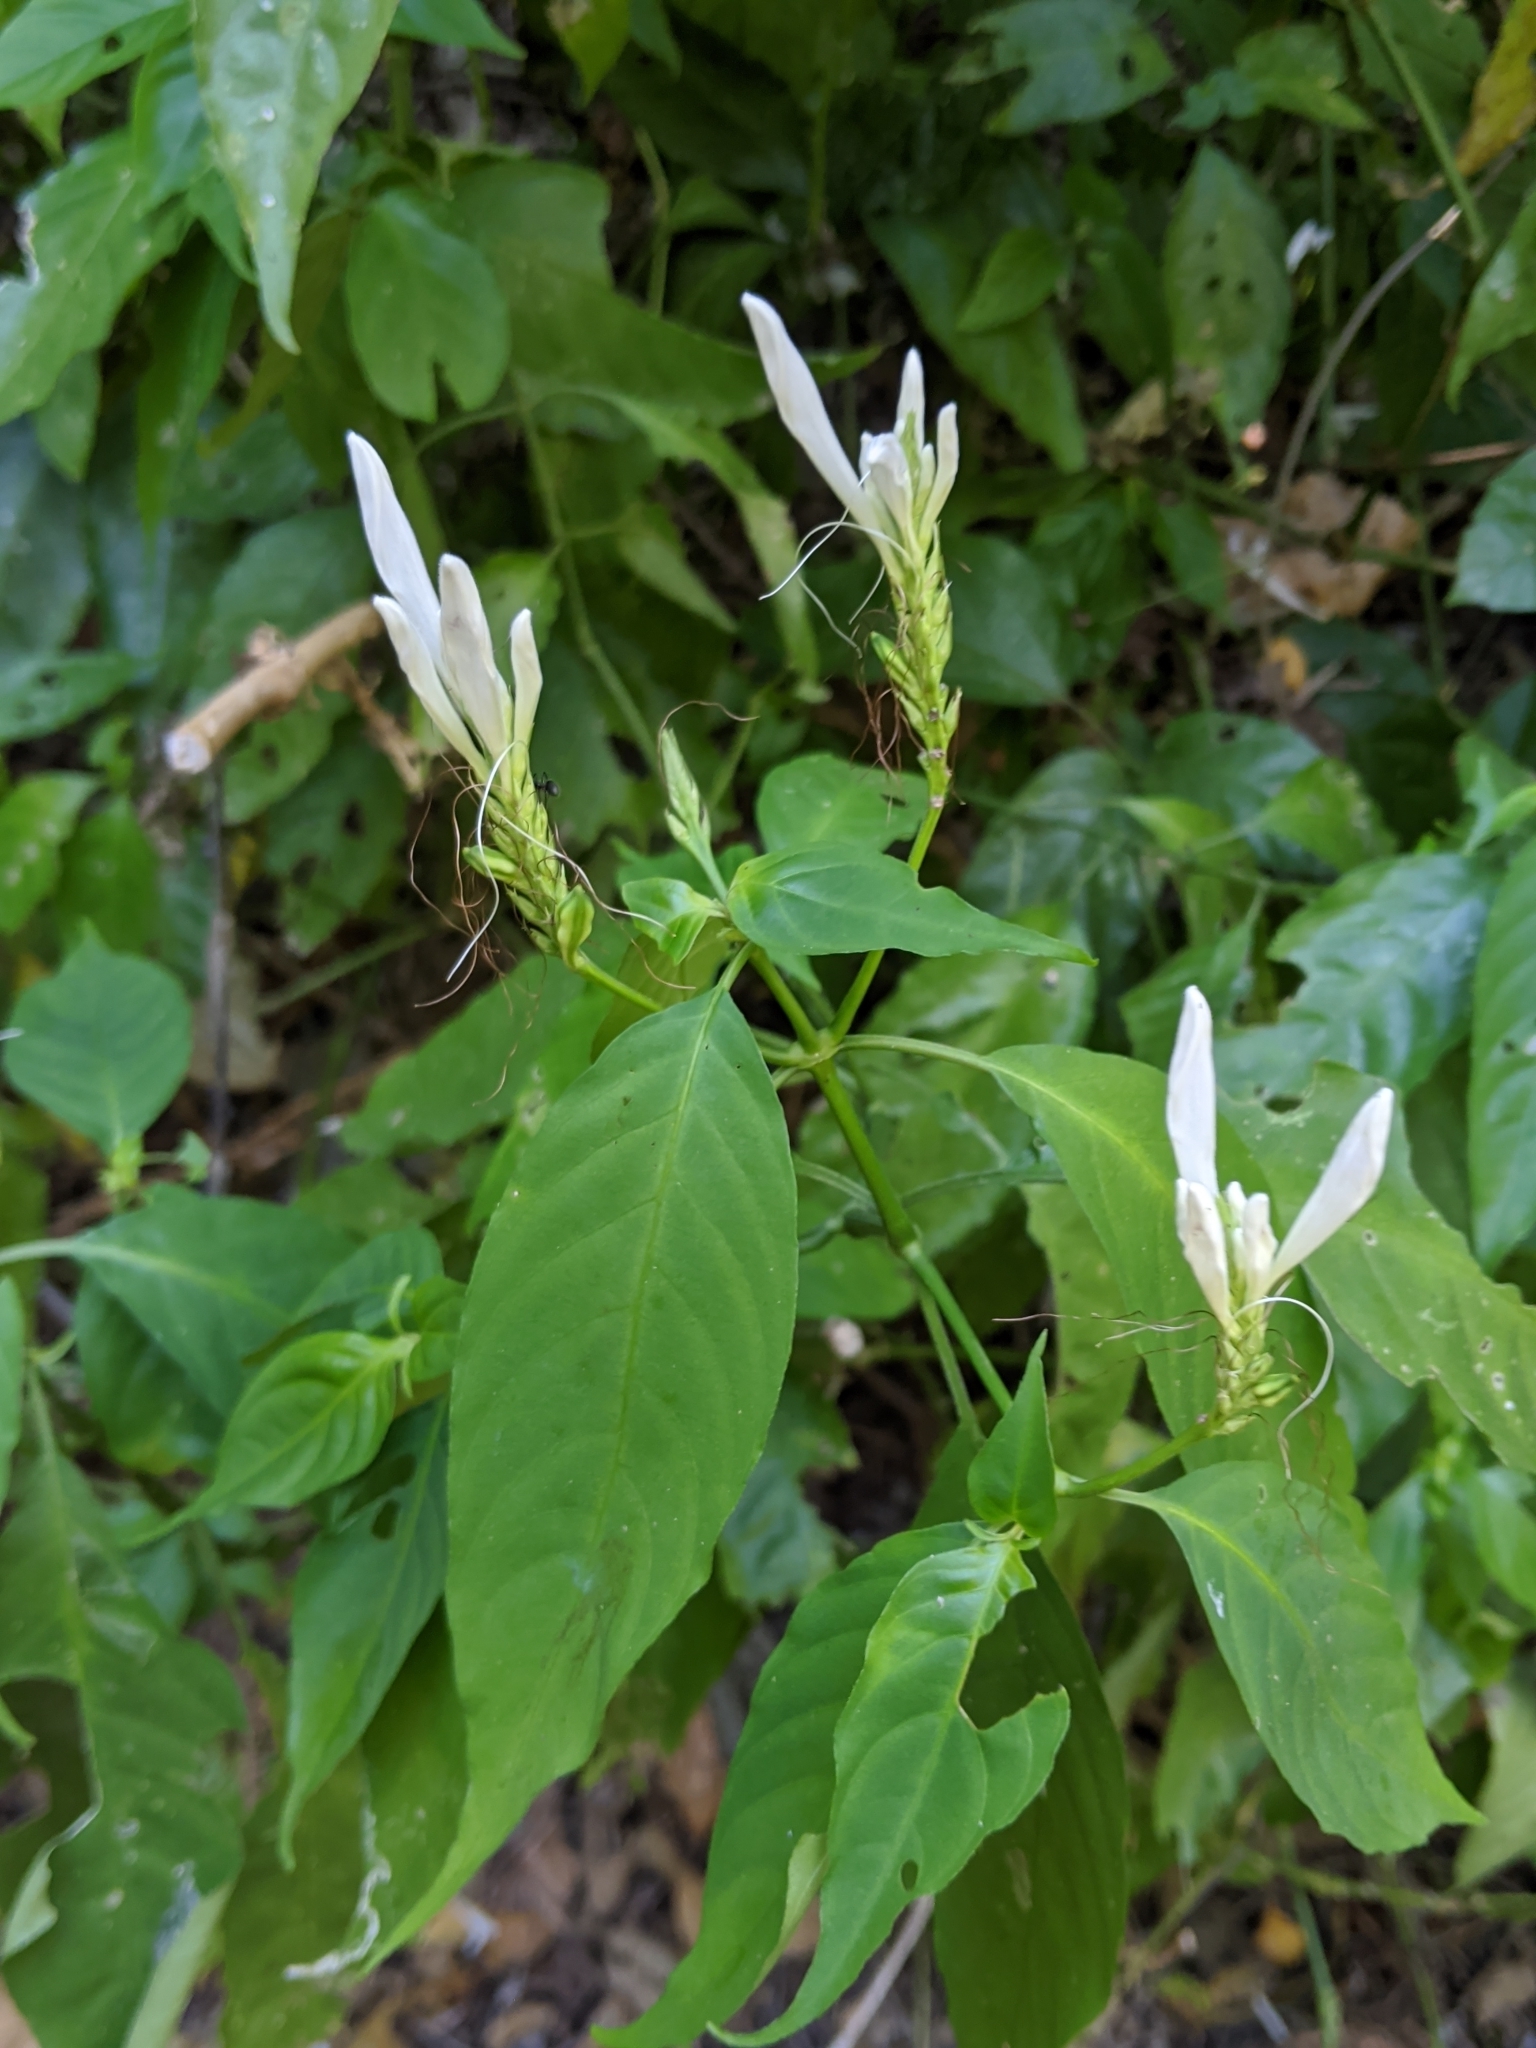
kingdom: Plantae
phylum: Tracheophyta
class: Magnoliopsida
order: Lamiales
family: Acanthaceae
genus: Justicia
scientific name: Justicia urophylla
